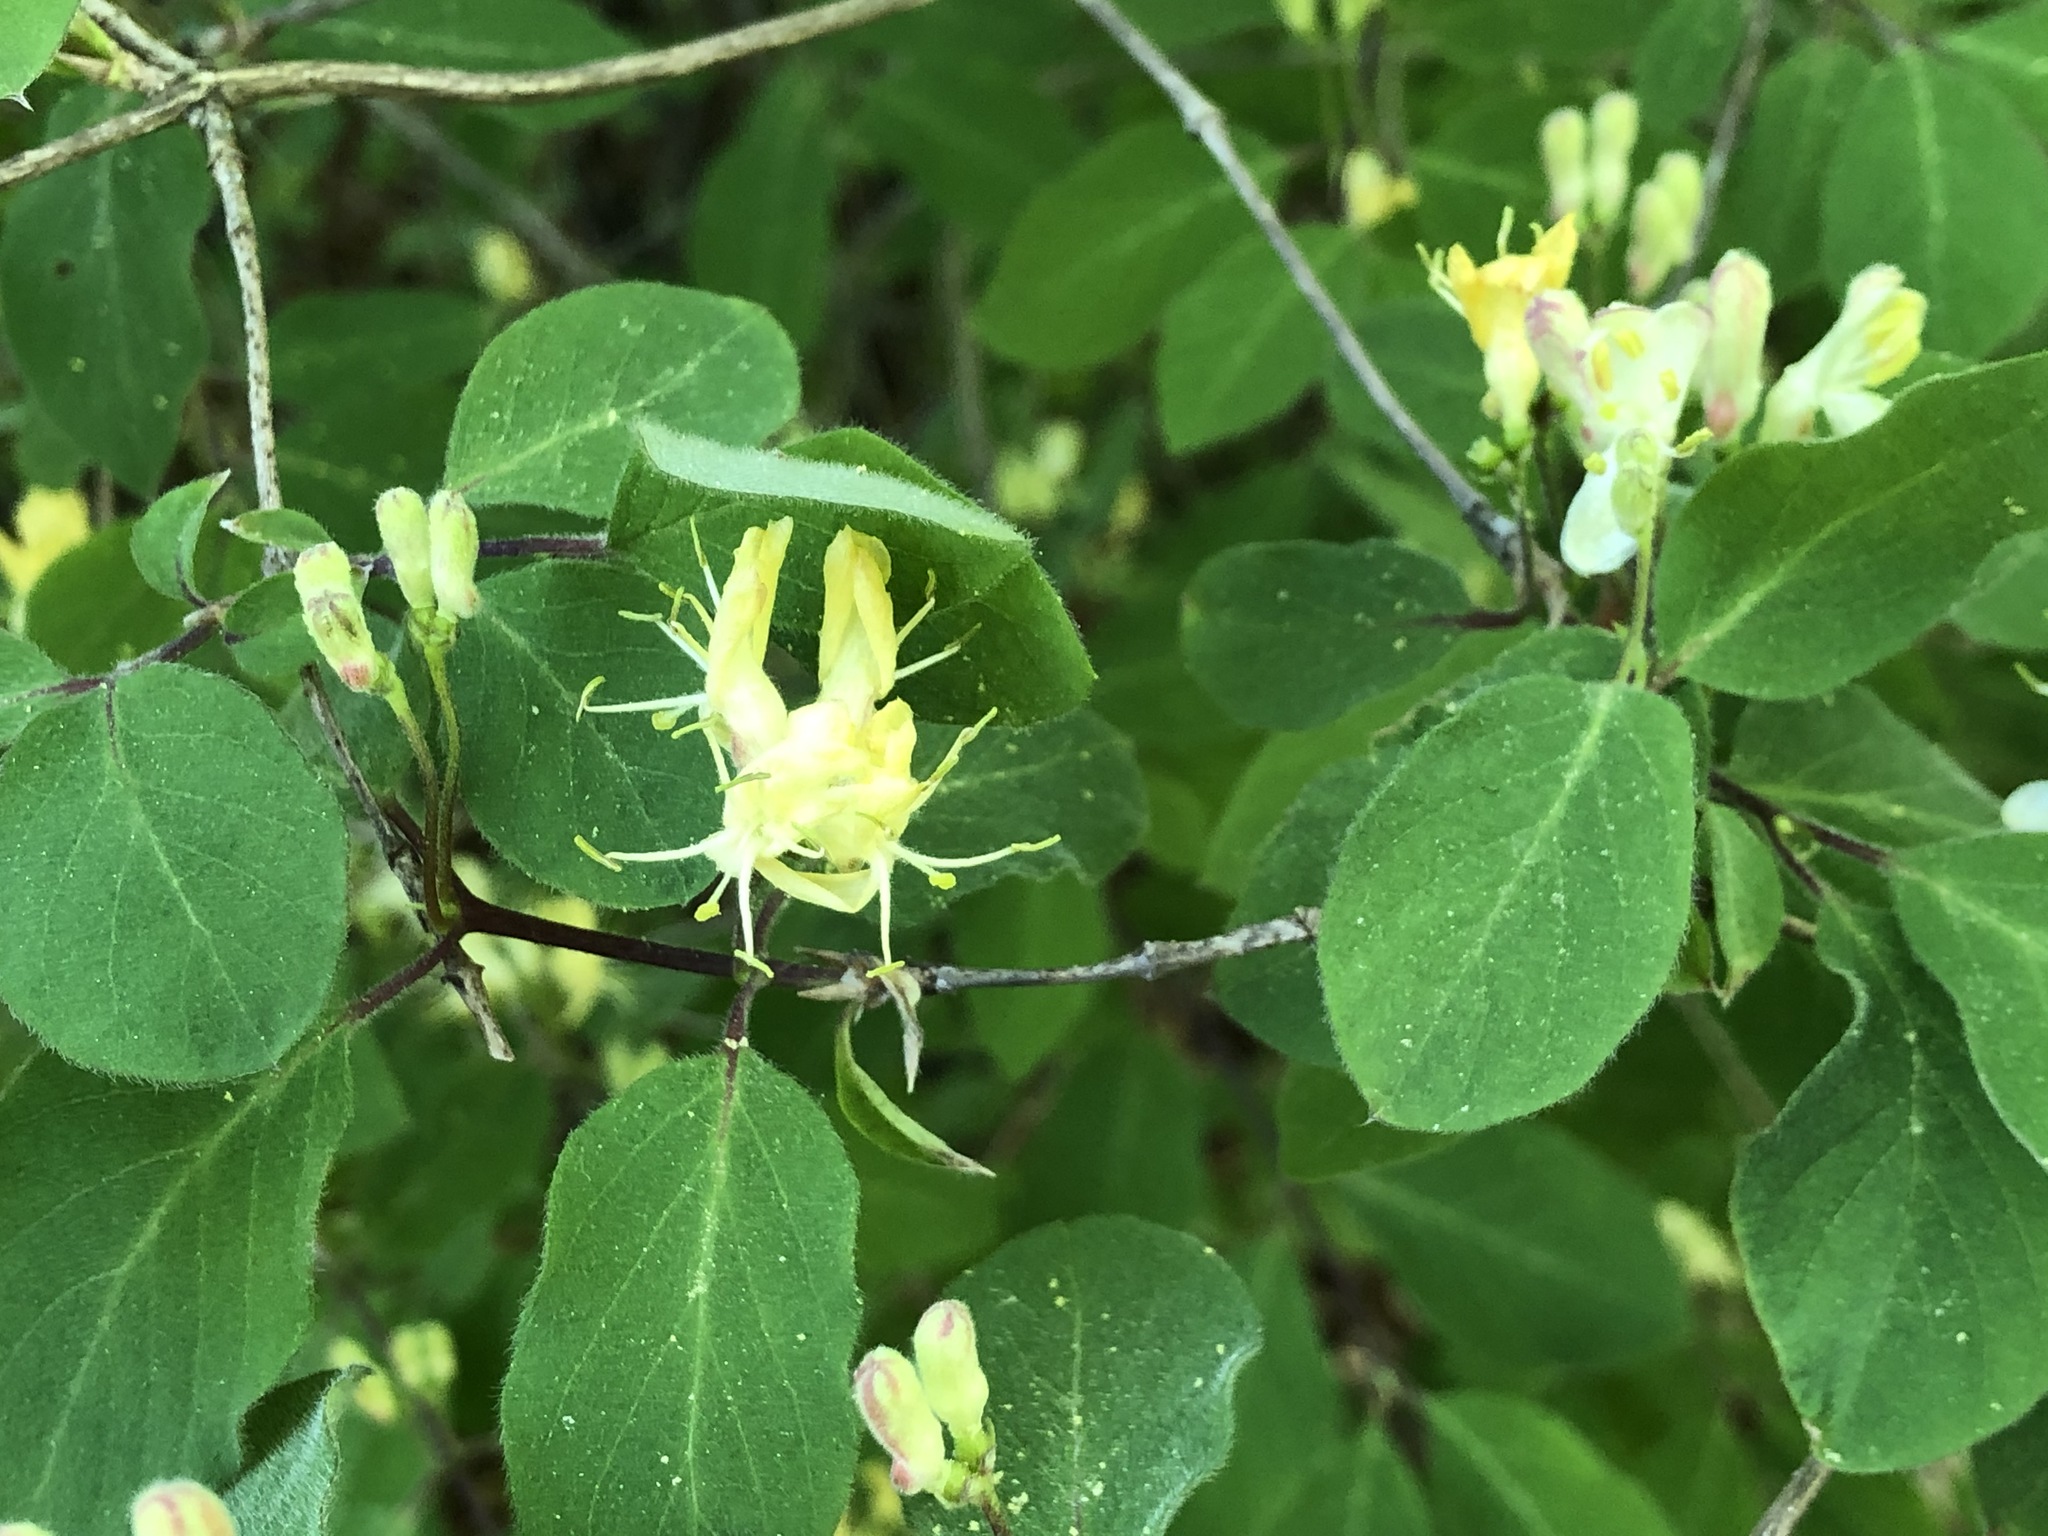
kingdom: Plantae
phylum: Tracheophyta
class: Magnoliopsida
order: Dipsacales
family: Caprifoliaceae
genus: Lonicera
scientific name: Lonicera xylosteum
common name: Fly honeysuckle
